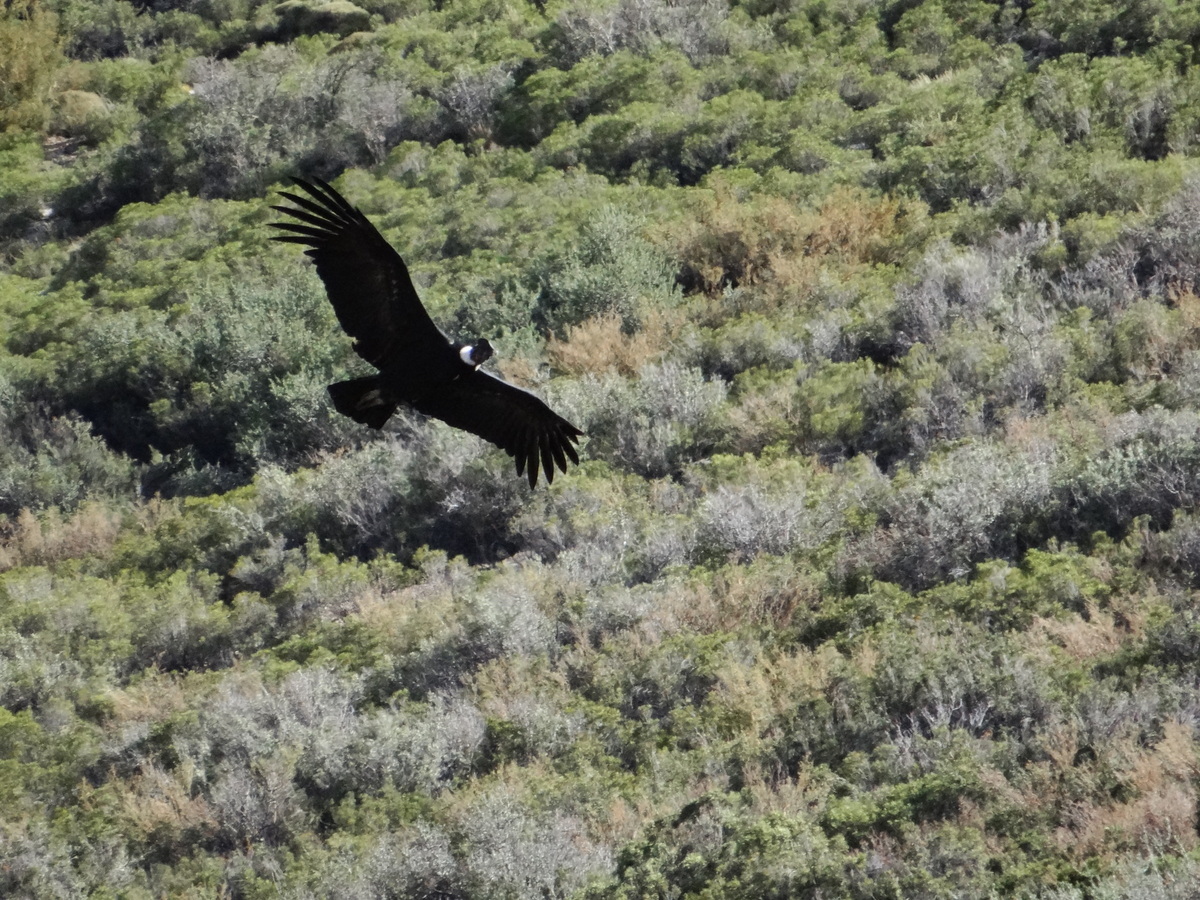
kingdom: Animalia
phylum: Chordata
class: Aves
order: Accipitriformes
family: Cathartidae
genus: Vultur
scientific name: Vultur gryphus
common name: Andean condor
